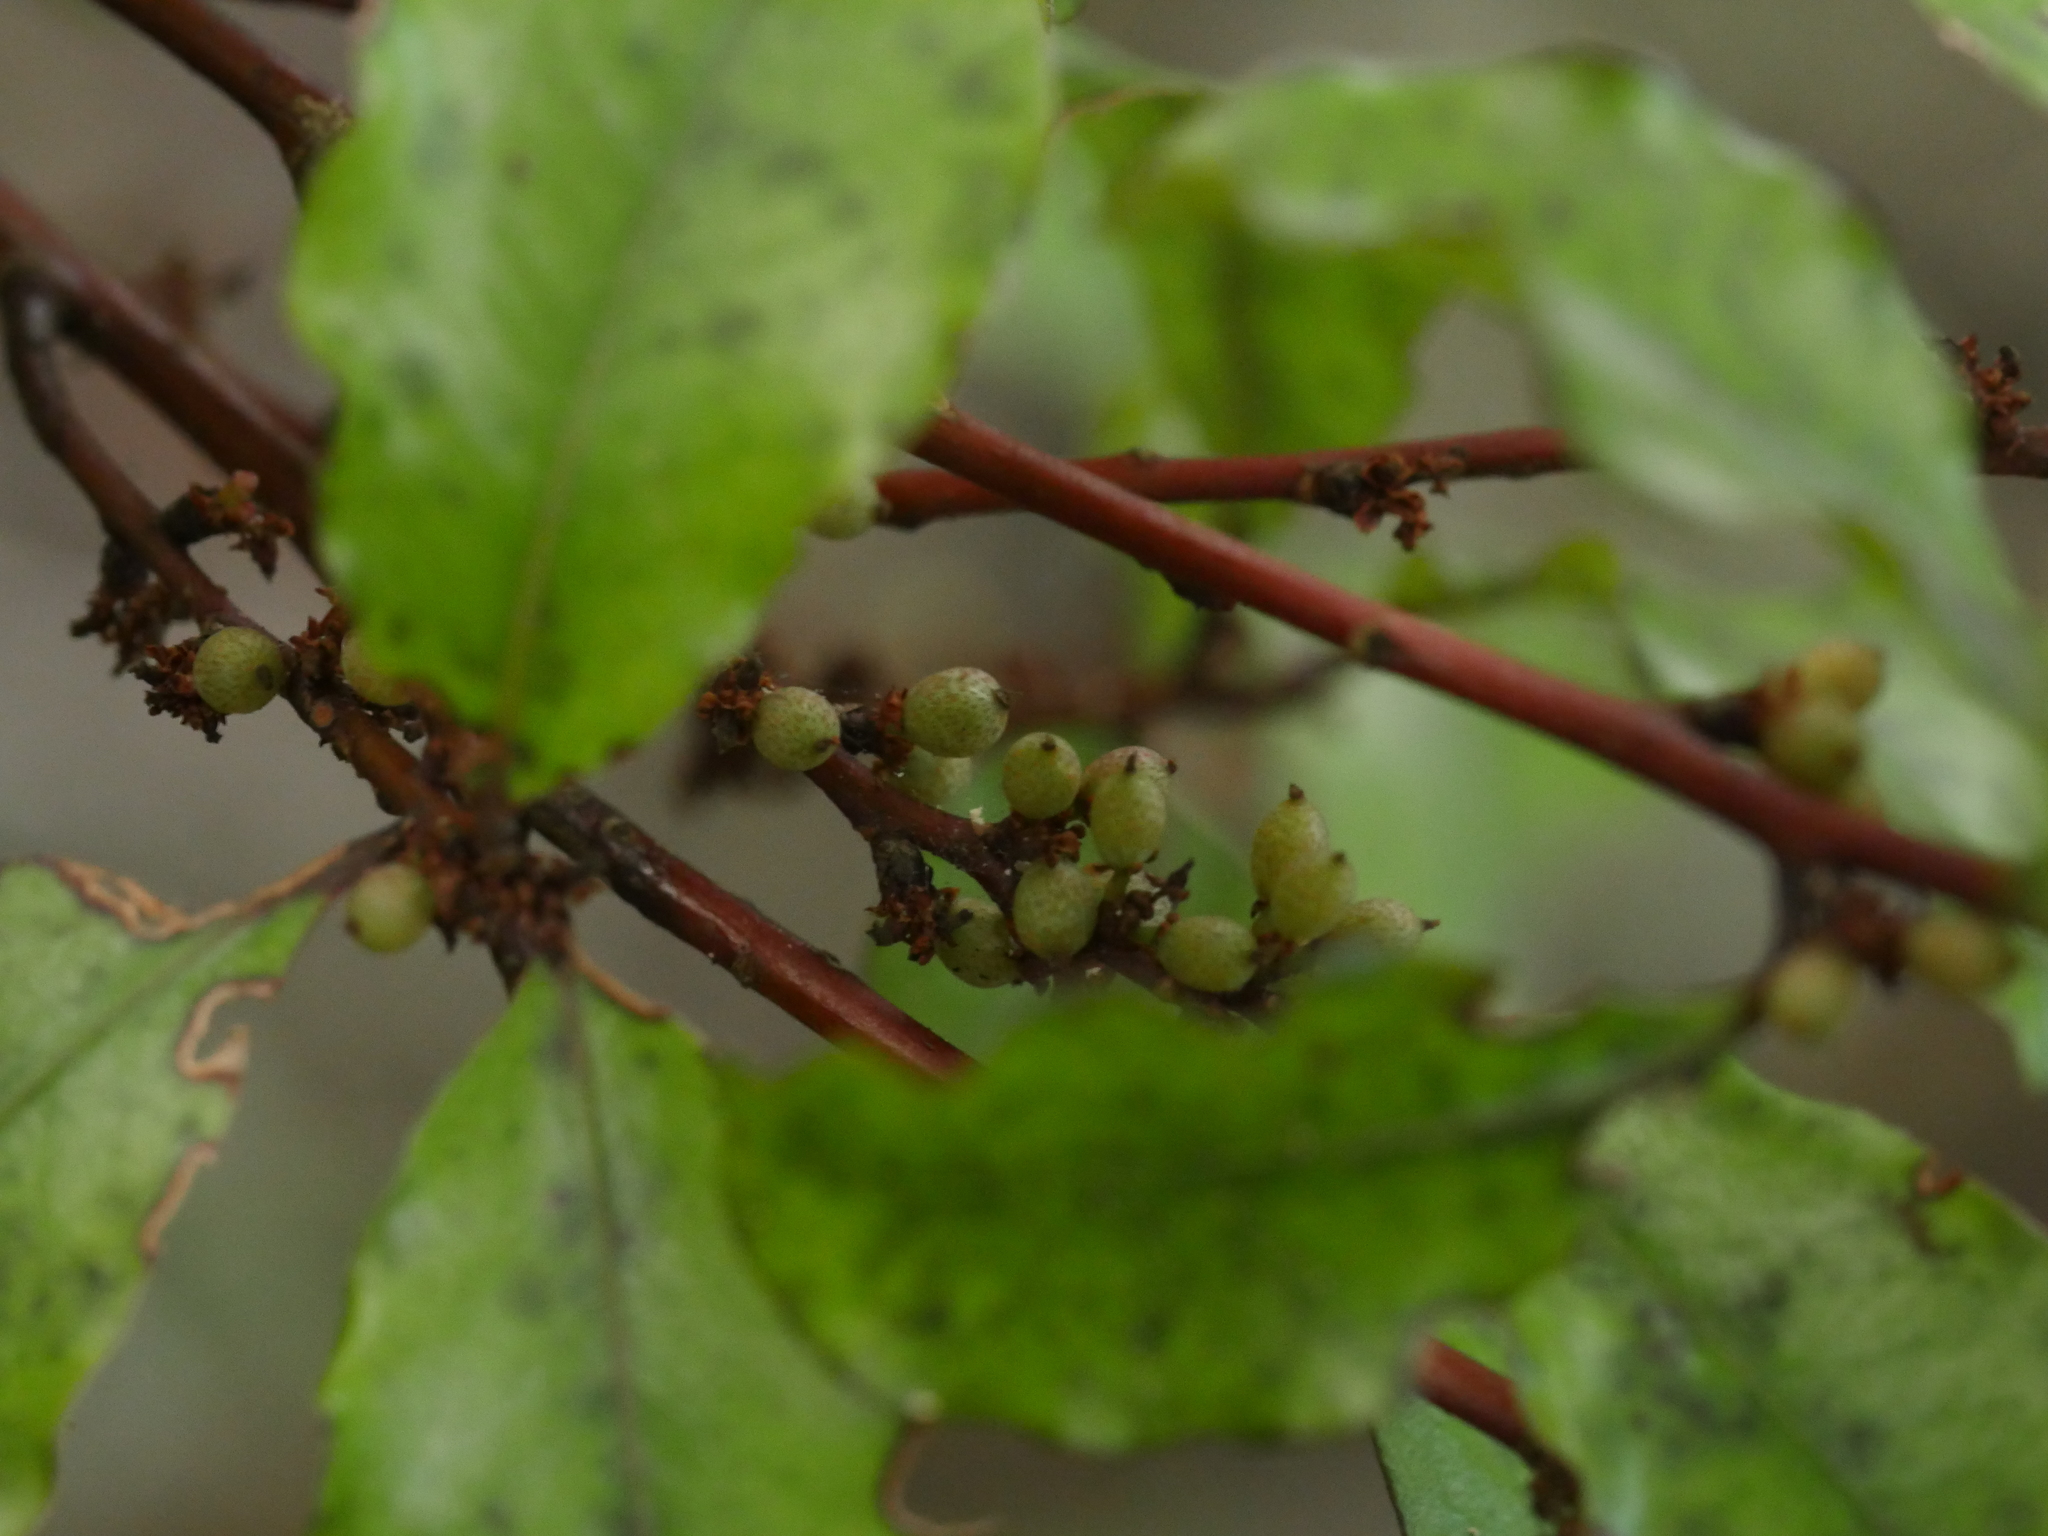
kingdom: Plantae
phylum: Tracheophyta
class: Magnoliopsida
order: Ericales
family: Primulaceae
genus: Myrsine
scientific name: Myrsine australis
